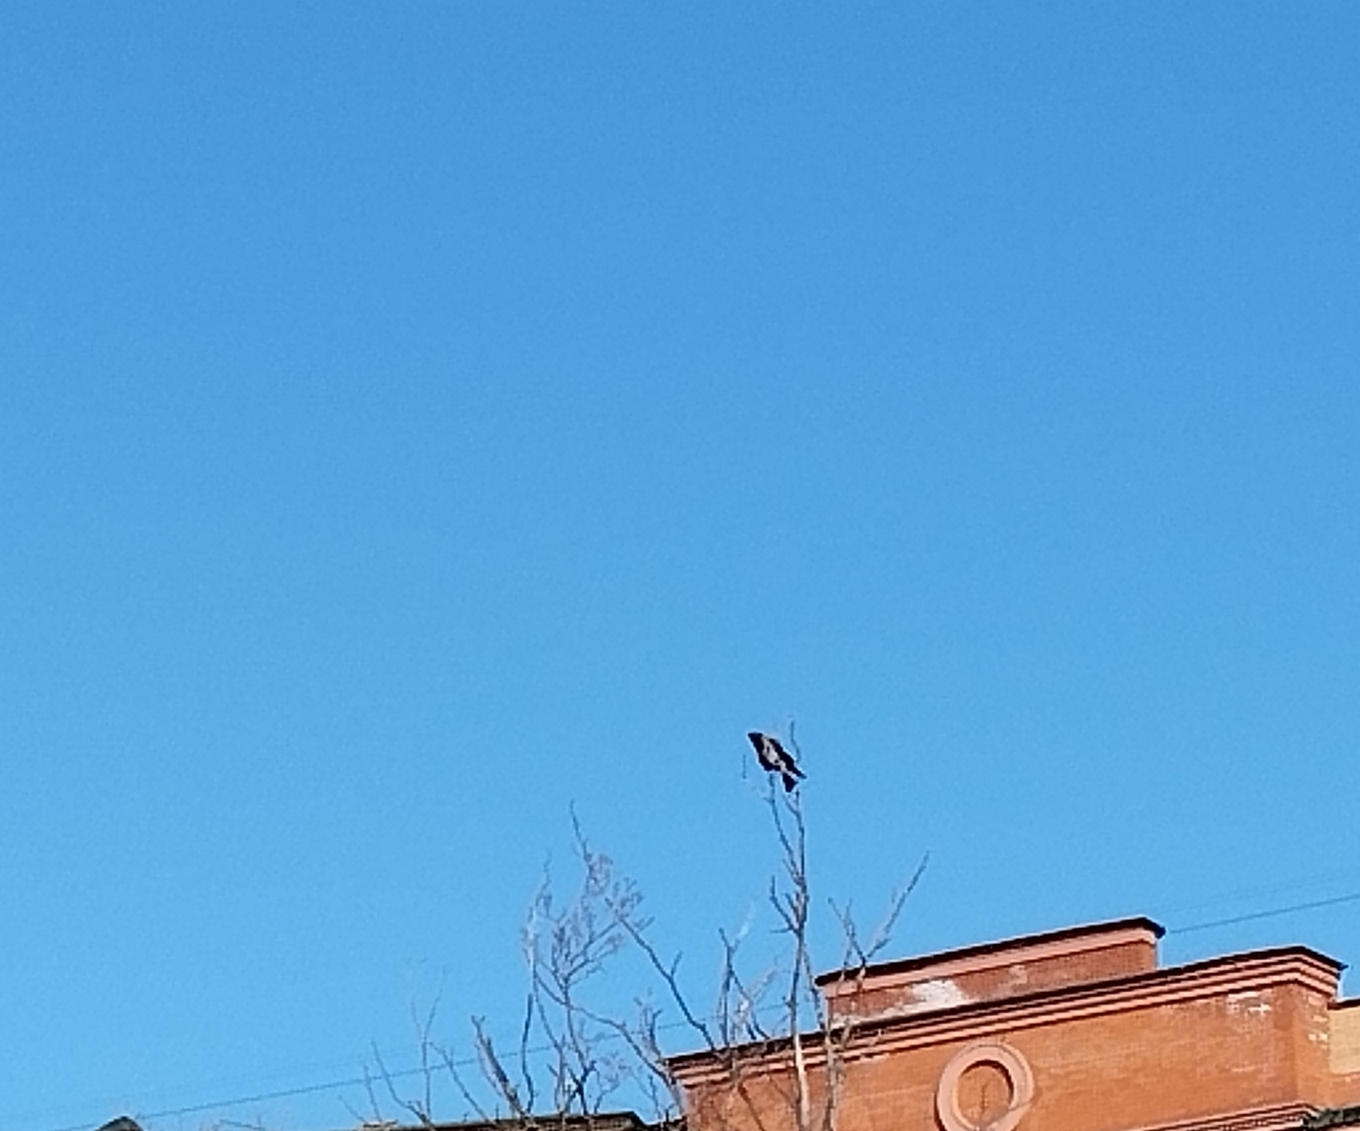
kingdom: Animalia
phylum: Chordata
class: Aves
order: Passeriformes
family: Corvidae
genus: Corvus
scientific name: Corvus cornix
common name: Hooded crow
